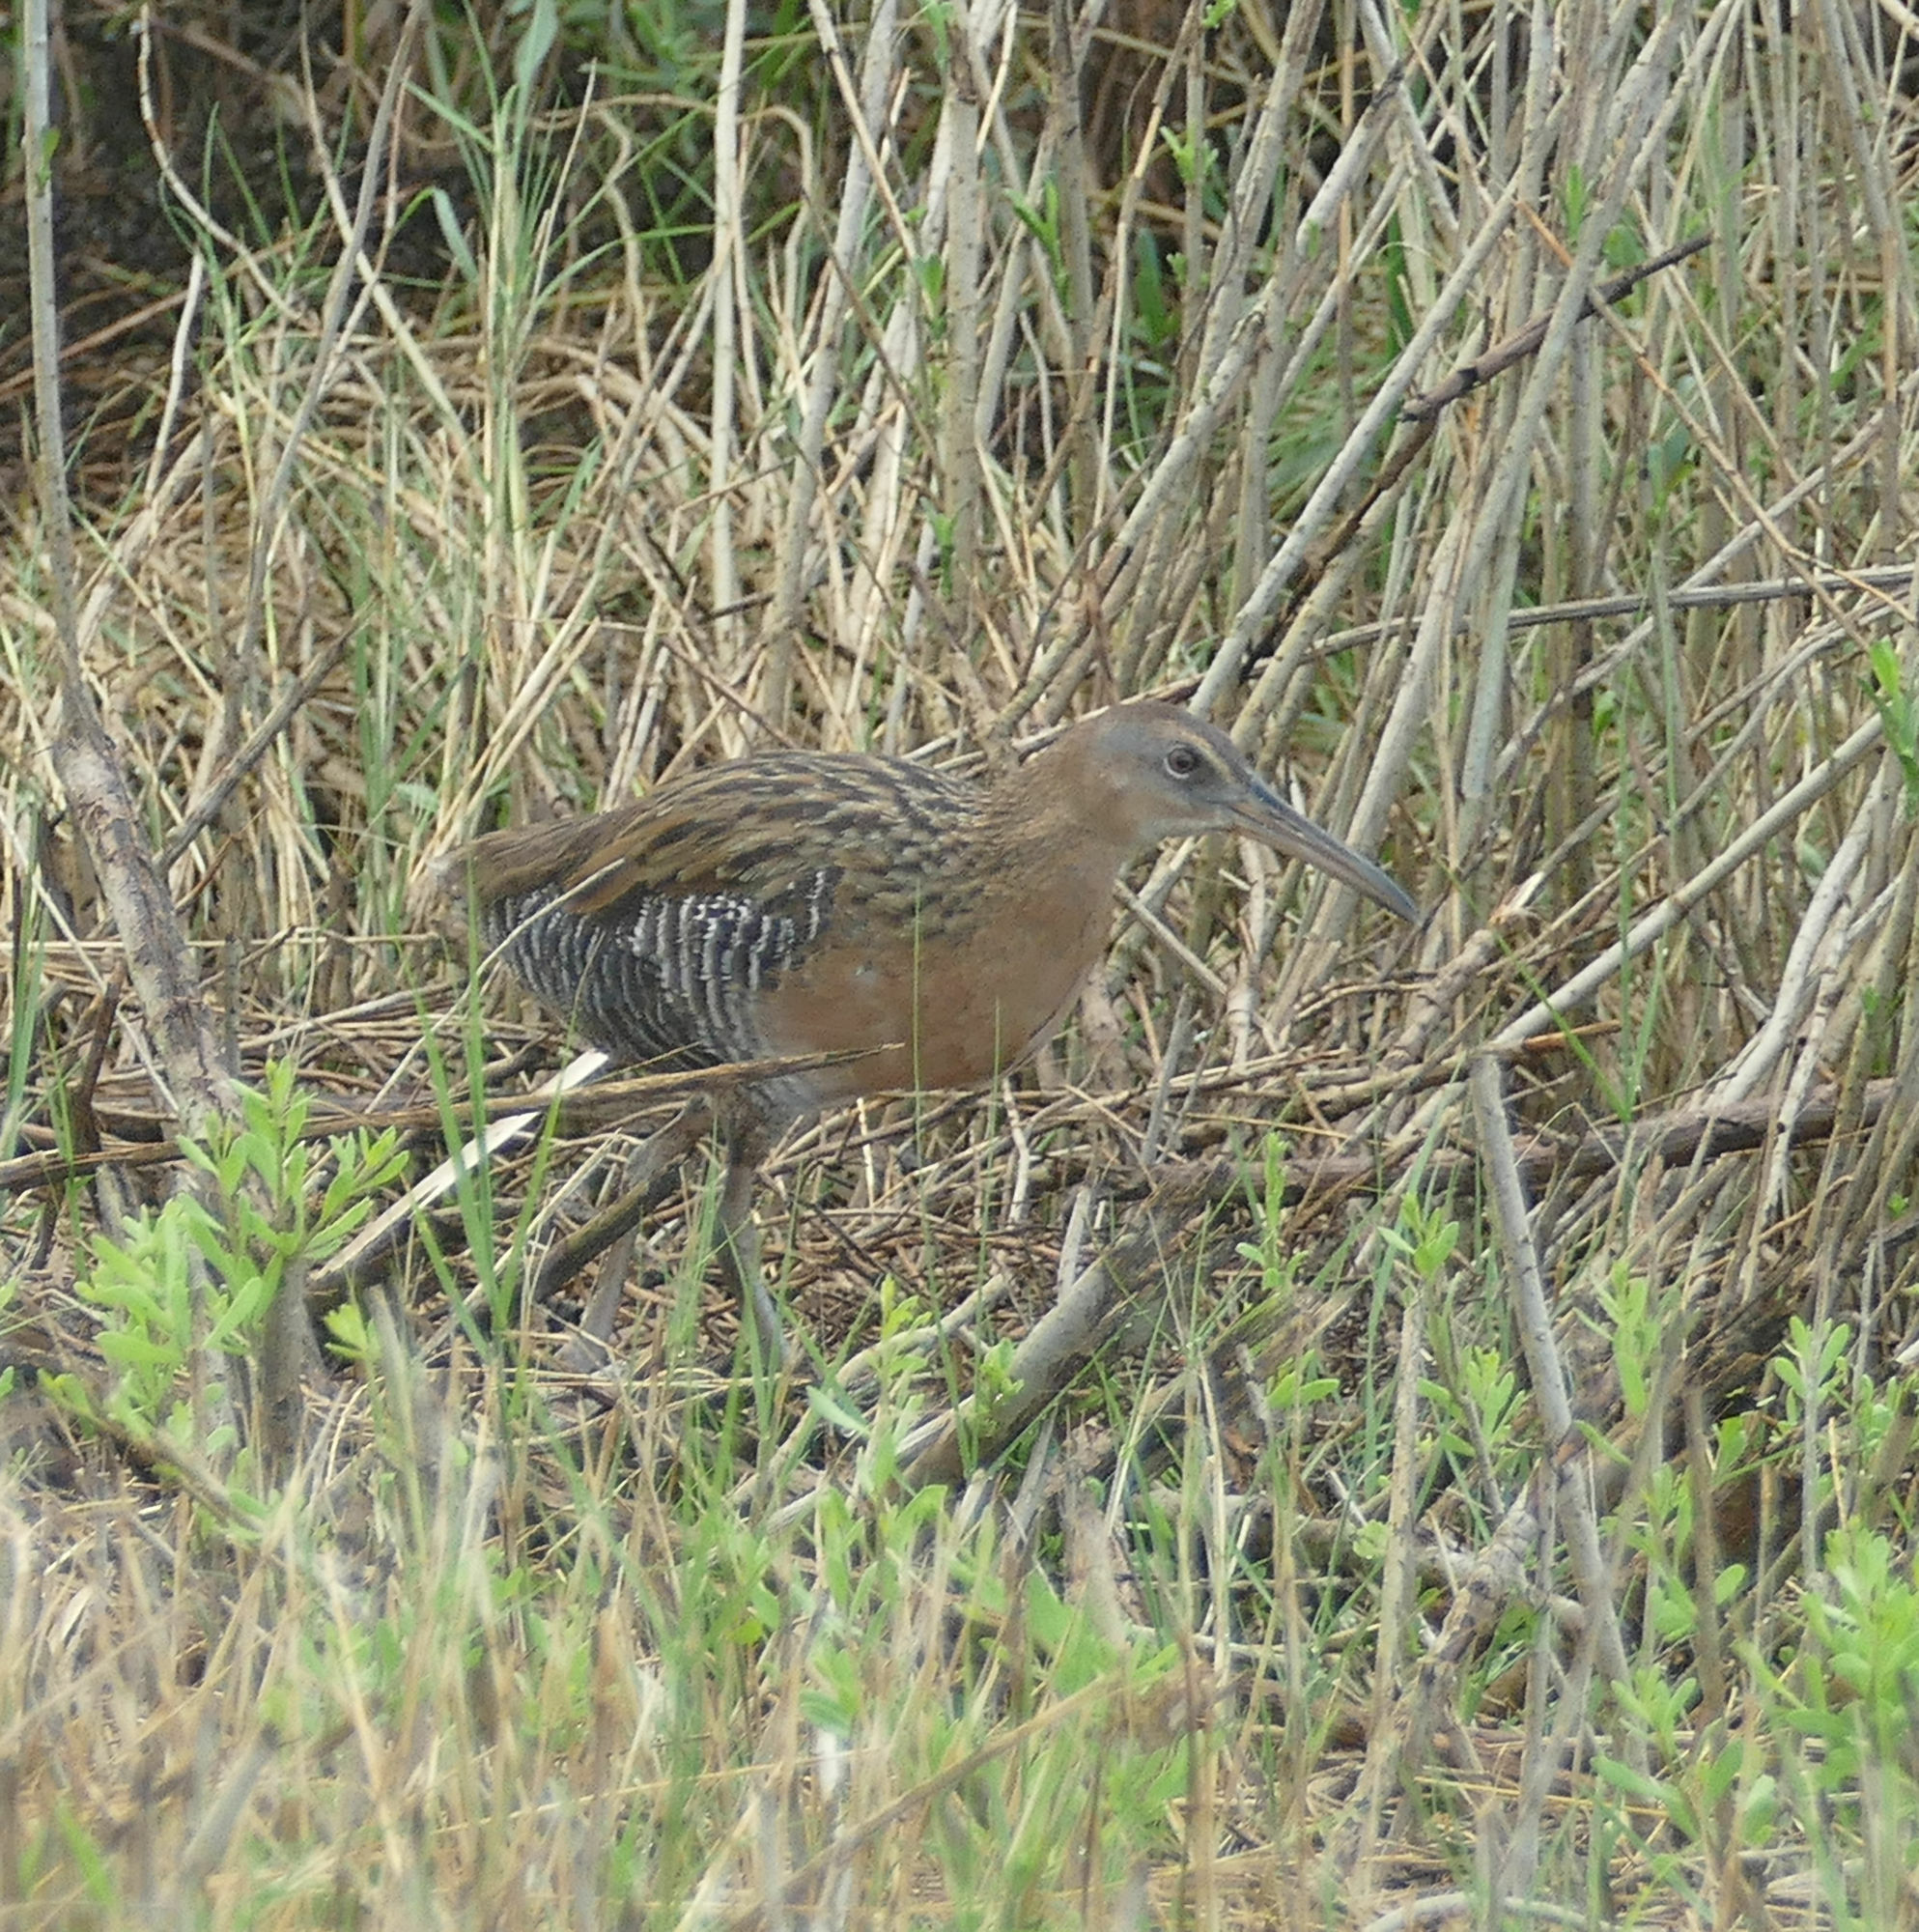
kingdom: Animalia
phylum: Chordata
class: Aves
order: Gruiformes
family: Rallidae
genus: Rallus
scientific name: Rallus elegans
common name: King rail
